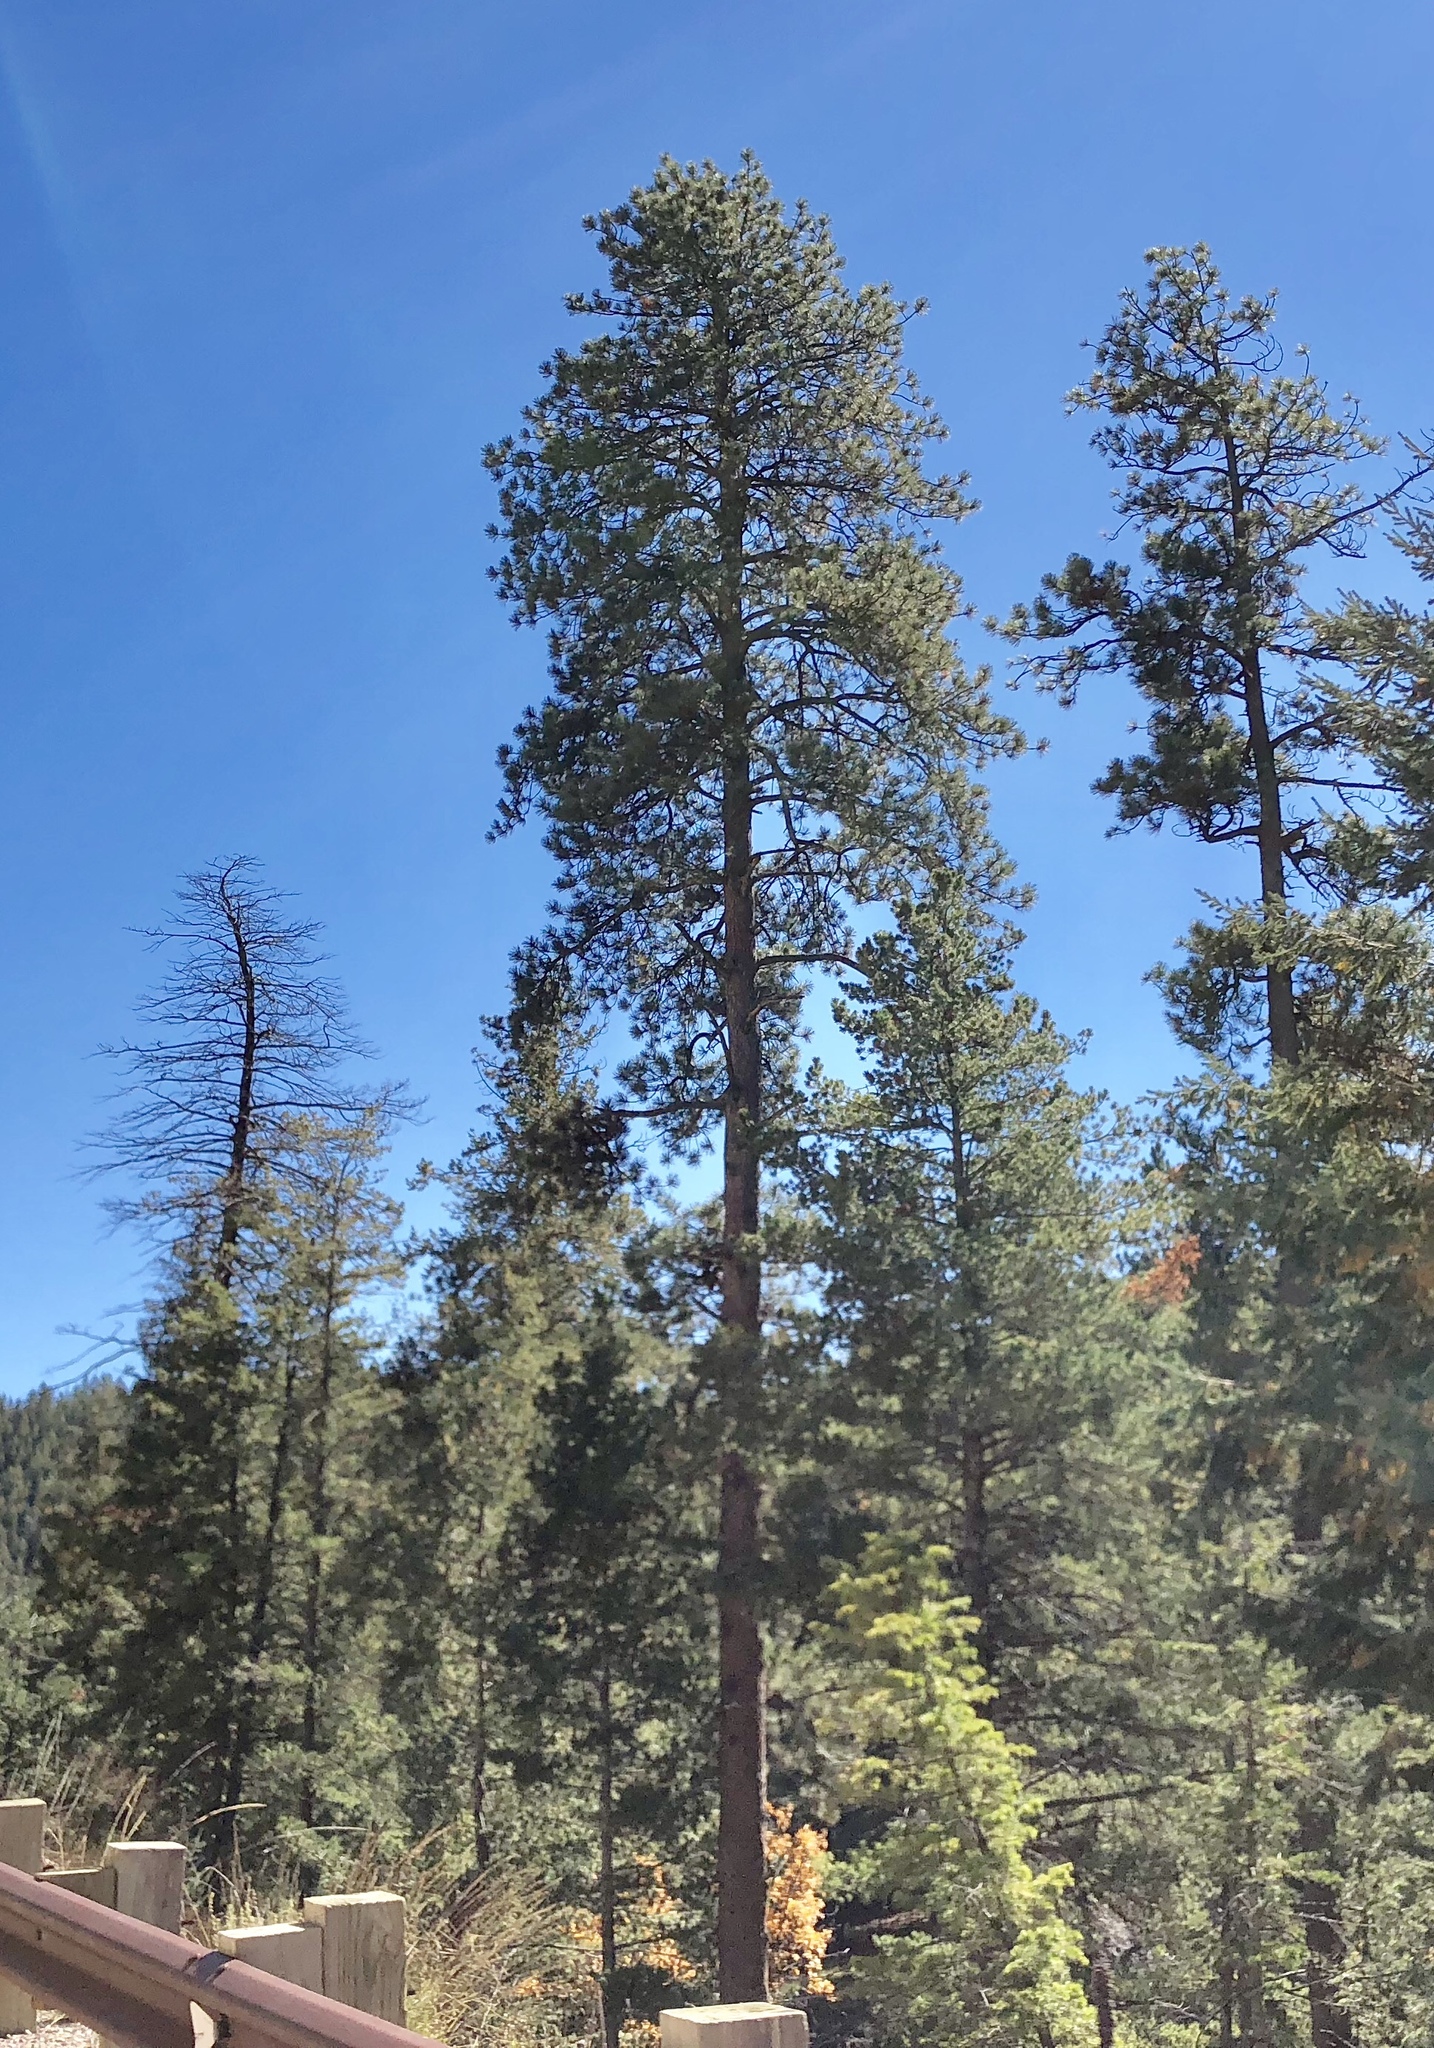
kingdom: Plantae
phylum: Tracheophyta
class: Pinopsida
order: Pinales
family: Pinaceae
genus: Pinus
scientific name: Pinus ponderosa
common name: Western yellow-pine
